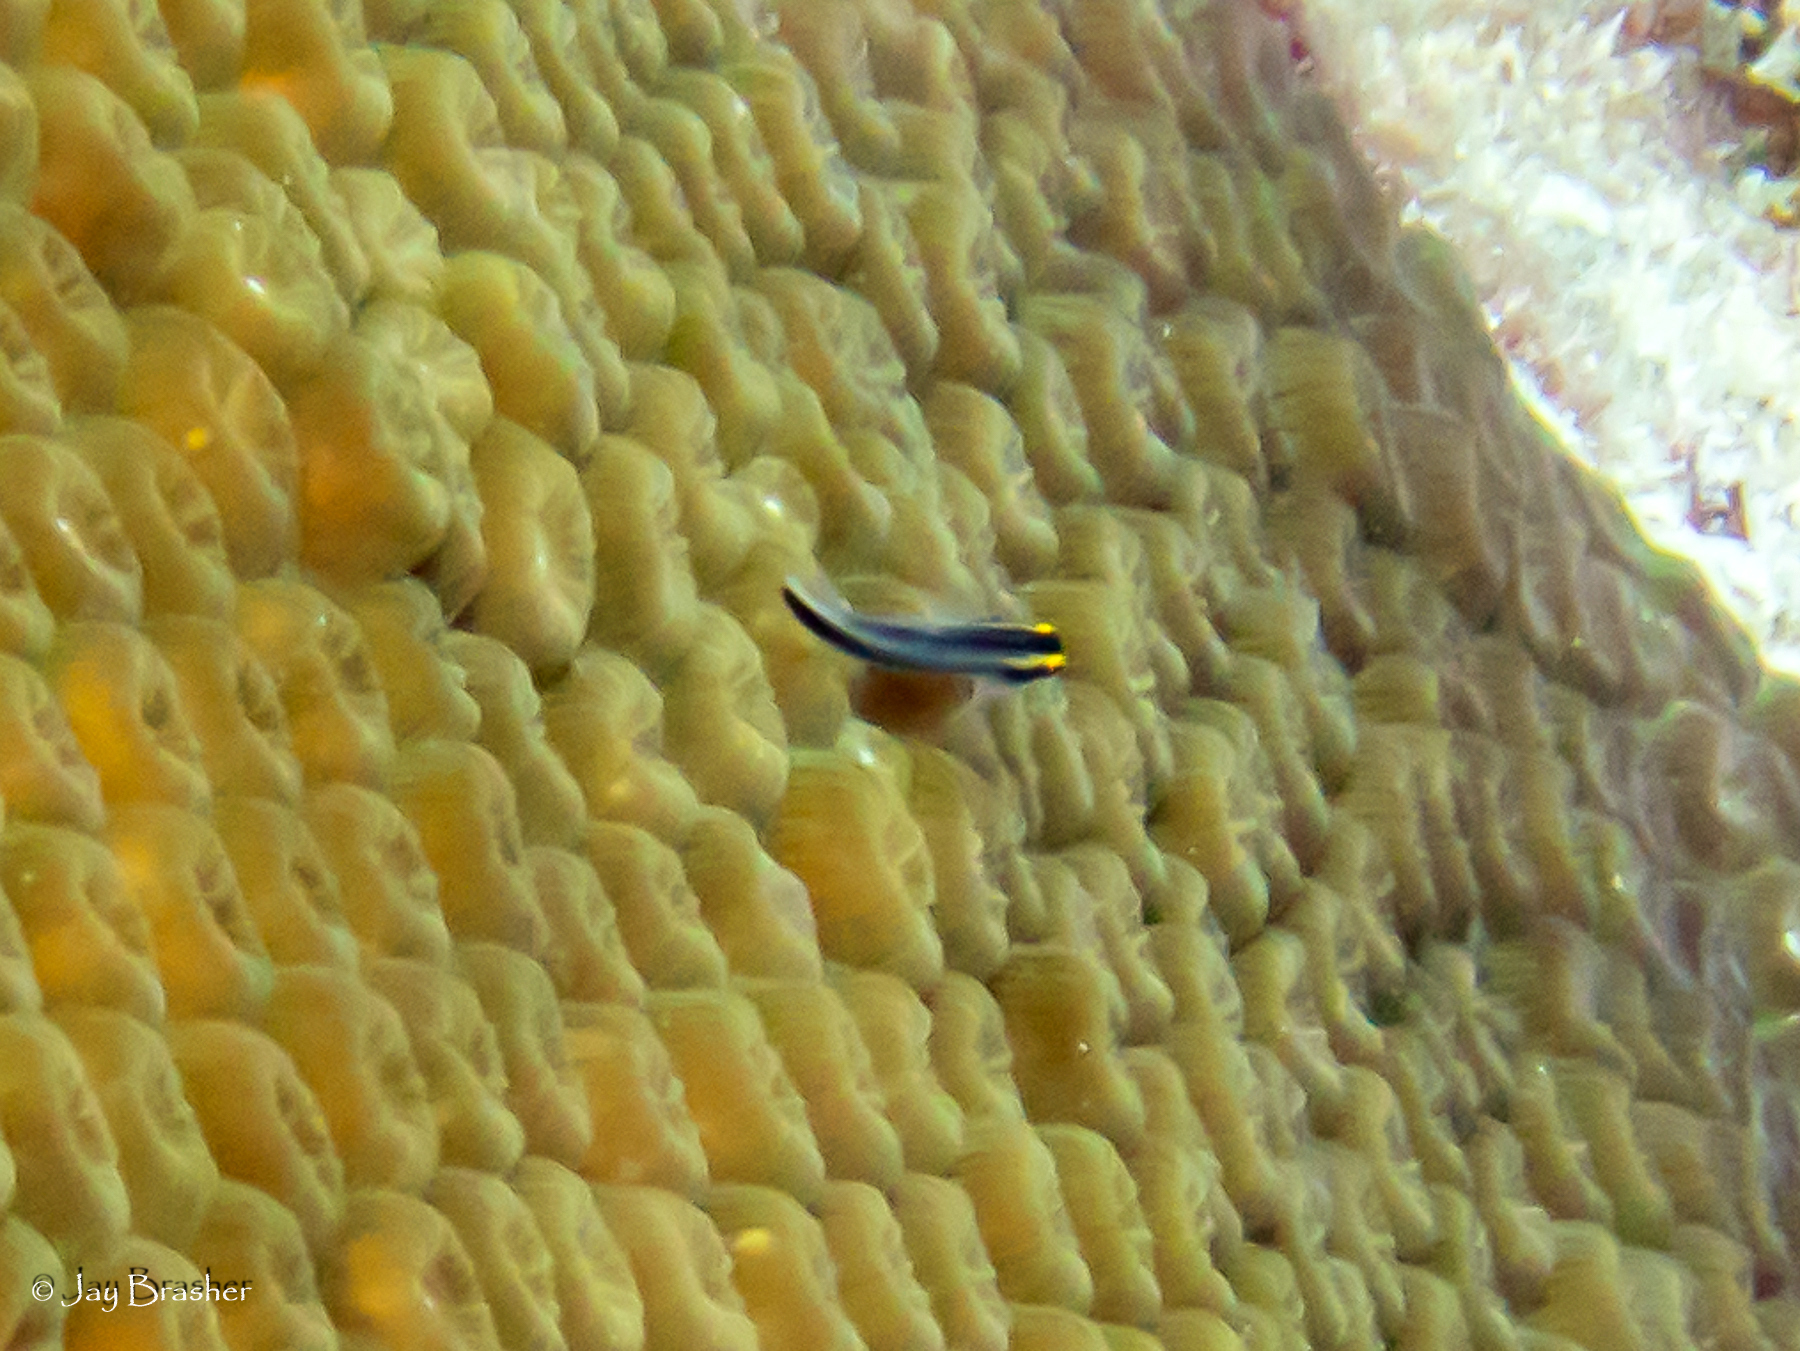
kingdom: Animalia
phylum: Chordata
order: Perciformes
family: Gobiidae
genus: Elacatinus
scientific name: Elacatinus evelynae
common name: Sharknose goby
